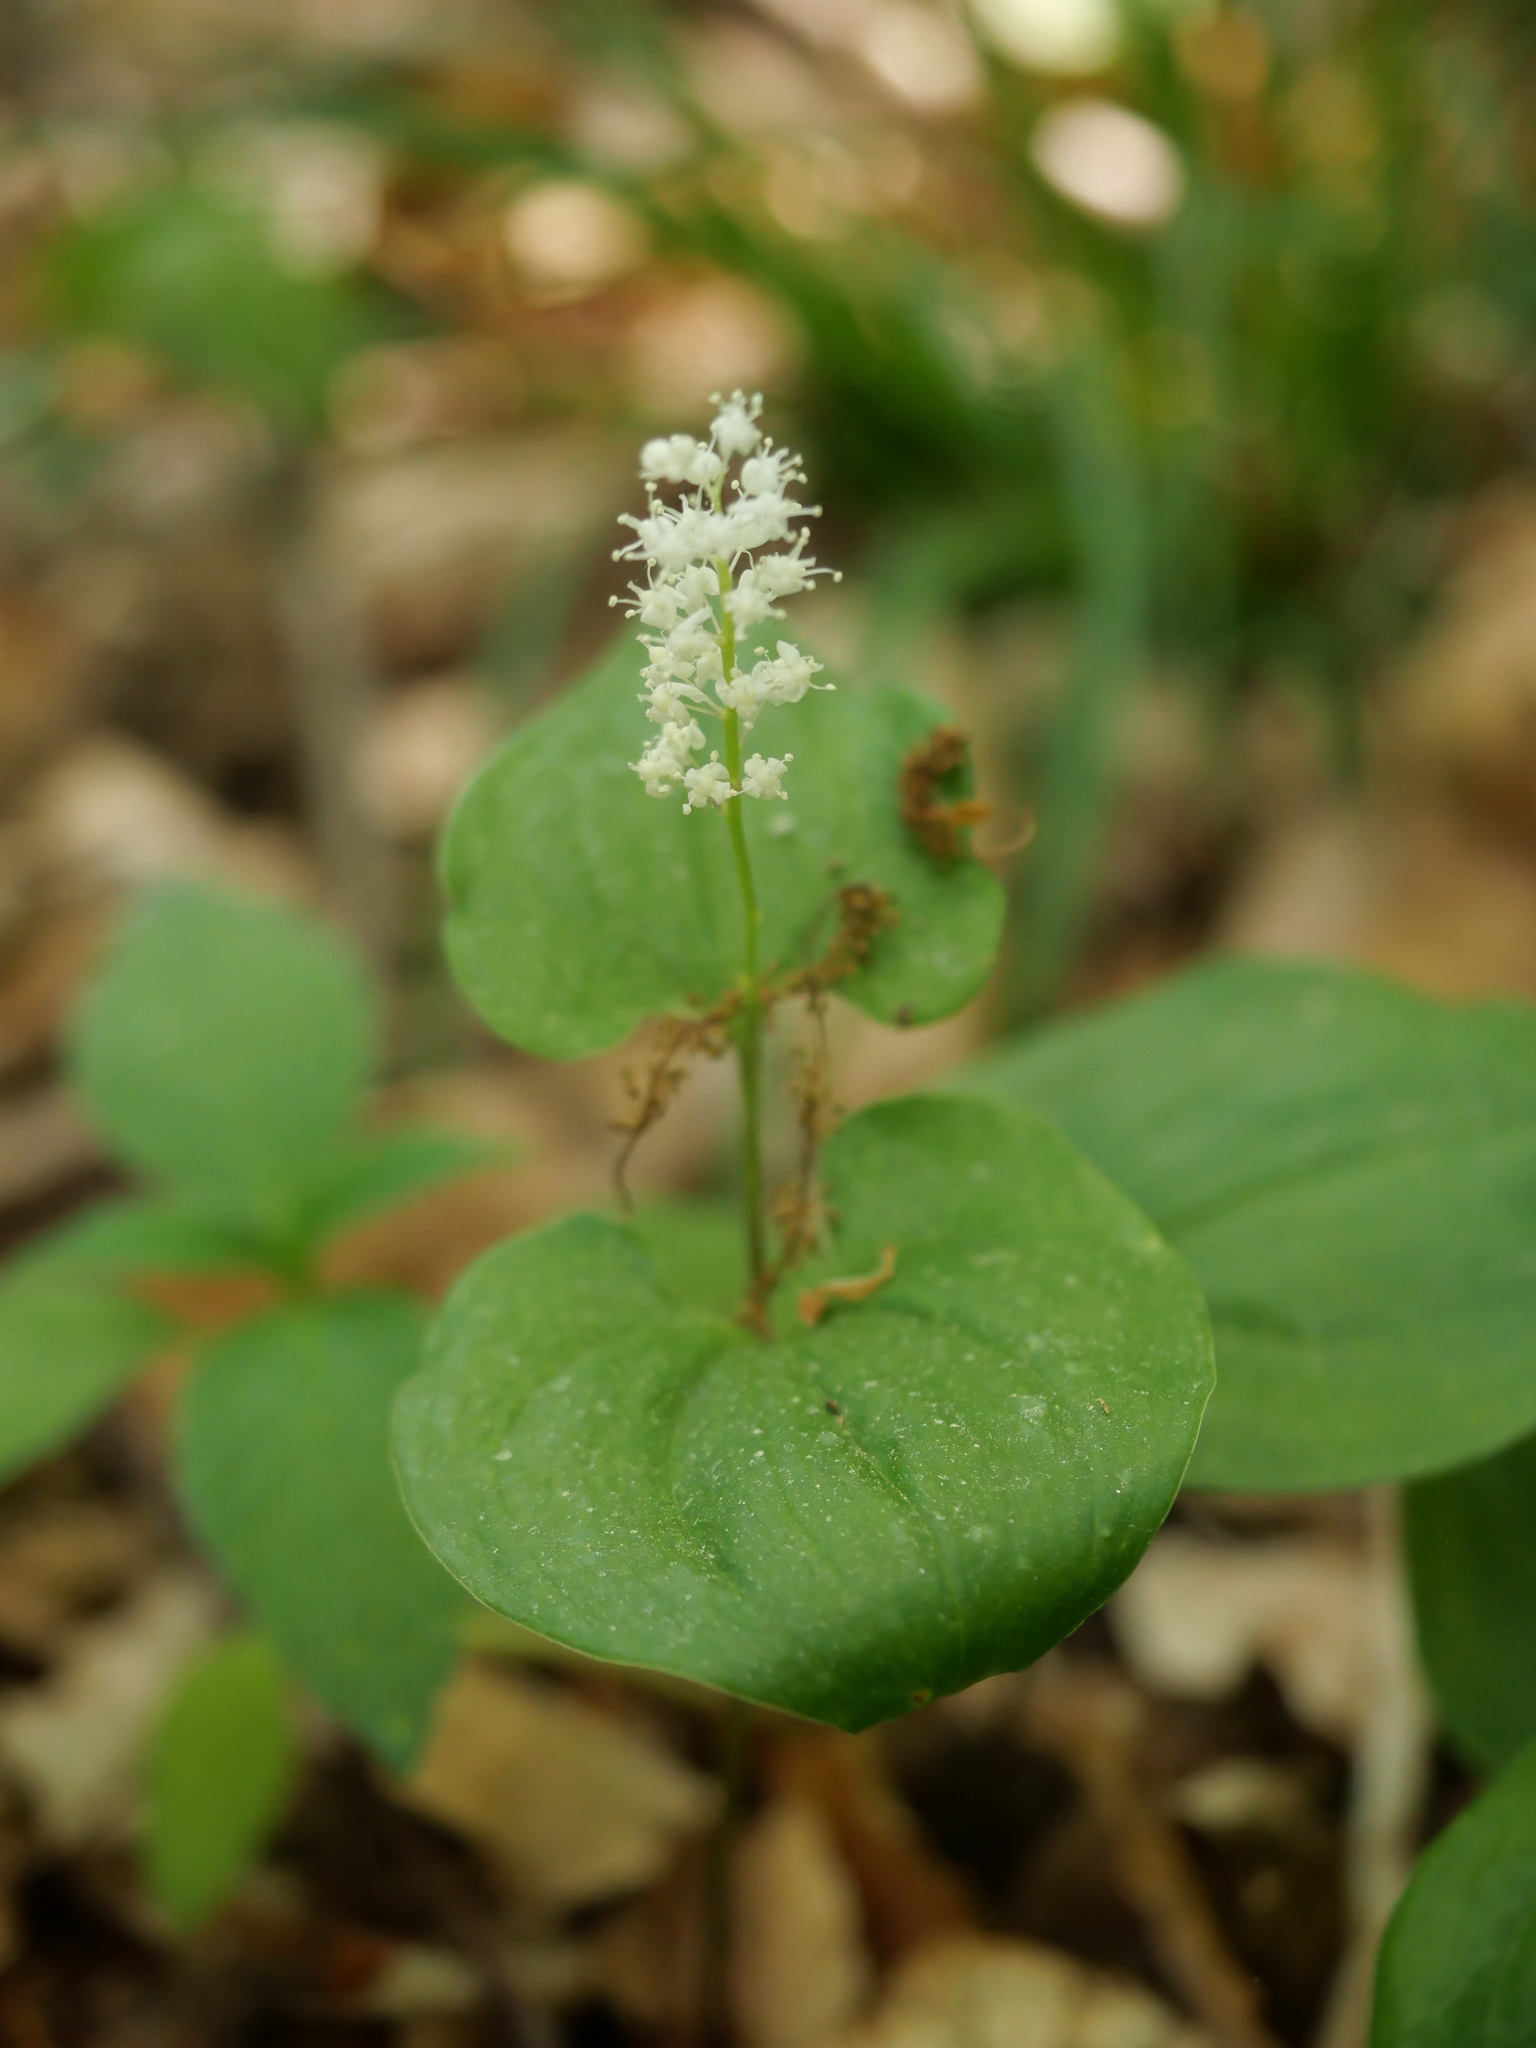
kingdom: Plantae
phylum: Tracheophyta
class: Liliopsida
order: Asparagales
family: Asparagaceae
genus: Maianthemum
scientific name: Maianthemum bifolium
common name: May lily
